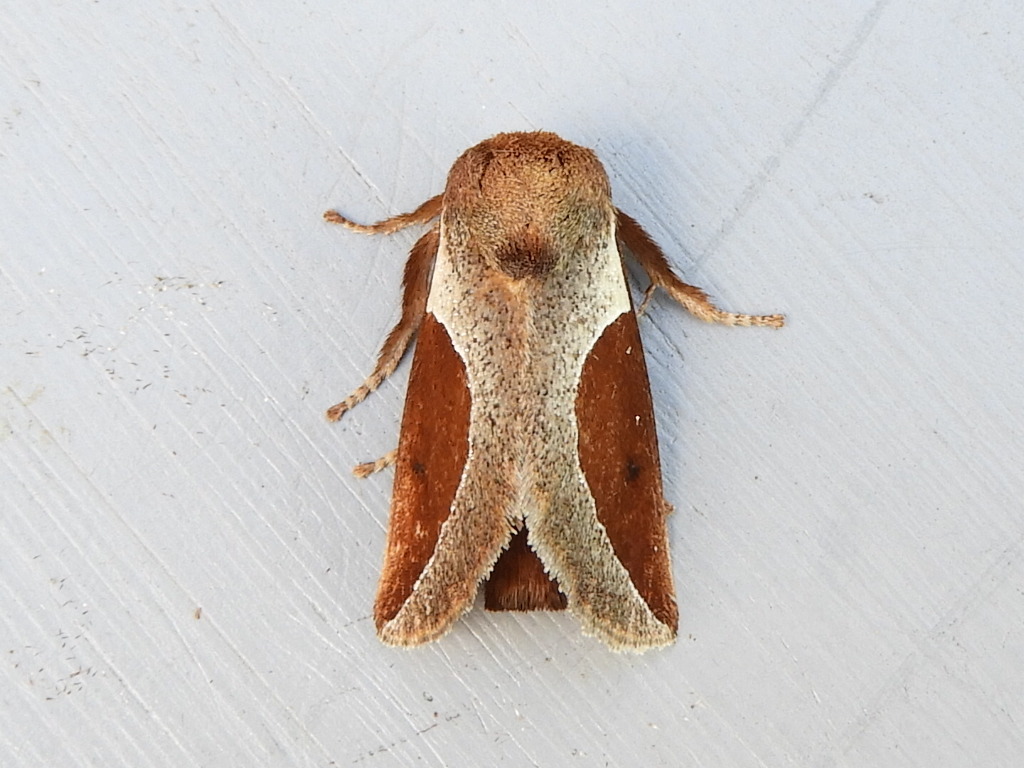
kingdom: Animalia
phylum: Arthropoda
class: Insecta
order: Lepidoptera
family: Limacodidae
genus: Prolimacodes
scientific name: Prolimacodes badia
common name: Skiff moth
